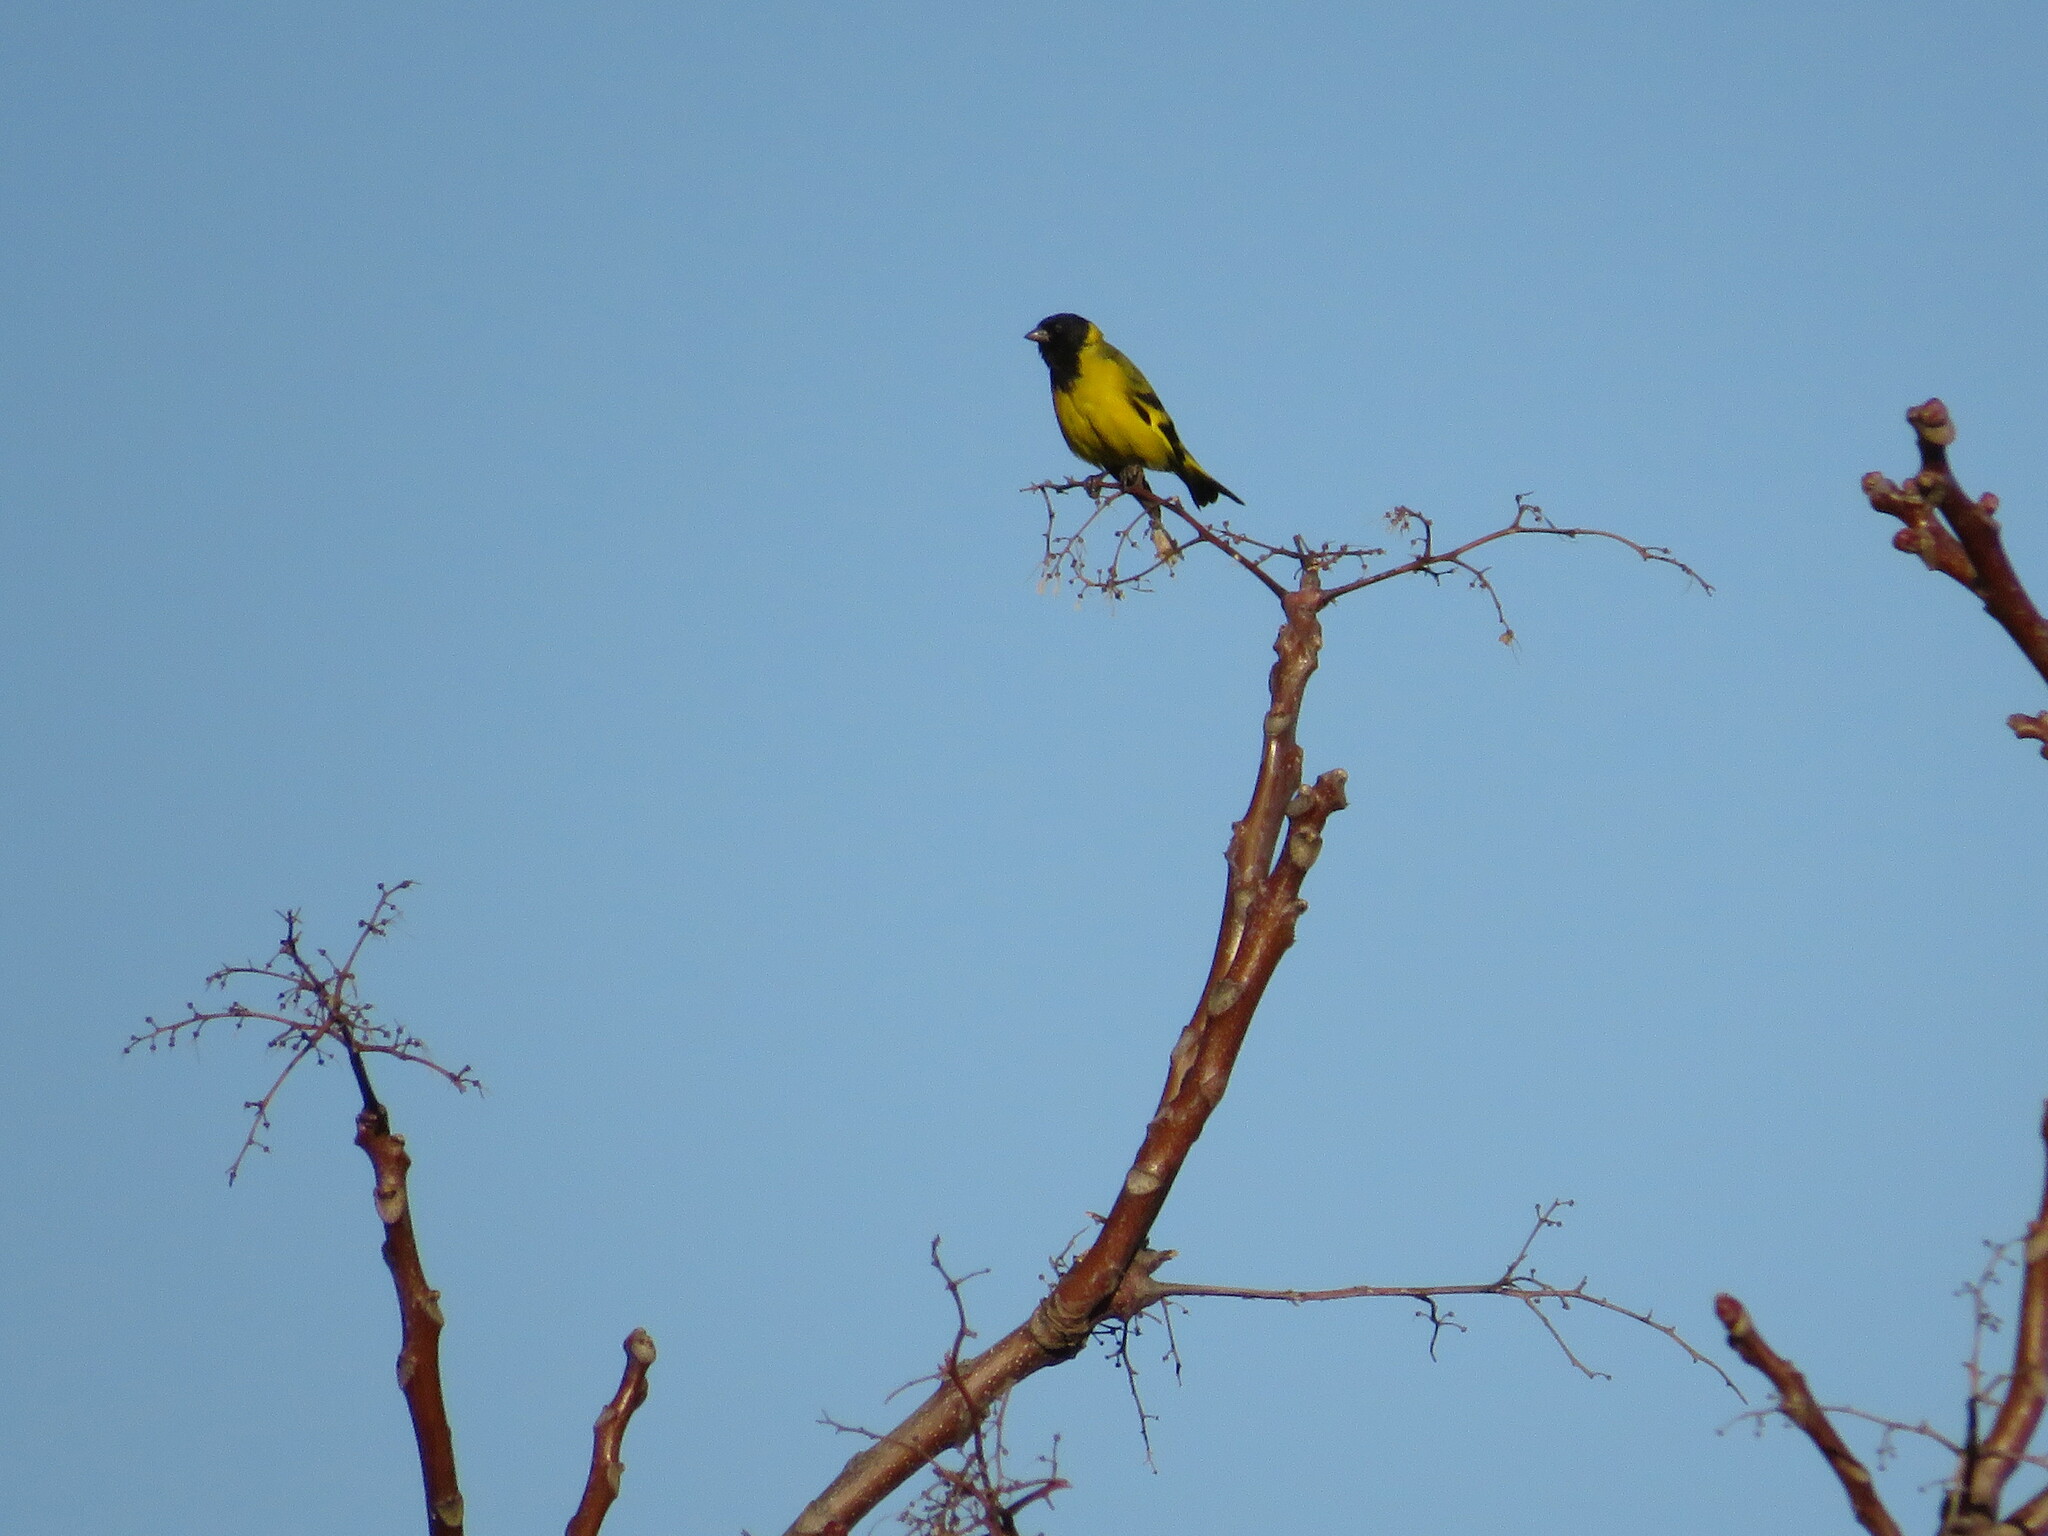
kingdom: Animalia
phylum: Chordata
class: Aves
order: Passeriformes
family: Fringillidae
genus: Spinus
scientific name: Spinus magellanicus
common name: Hooded siskin
